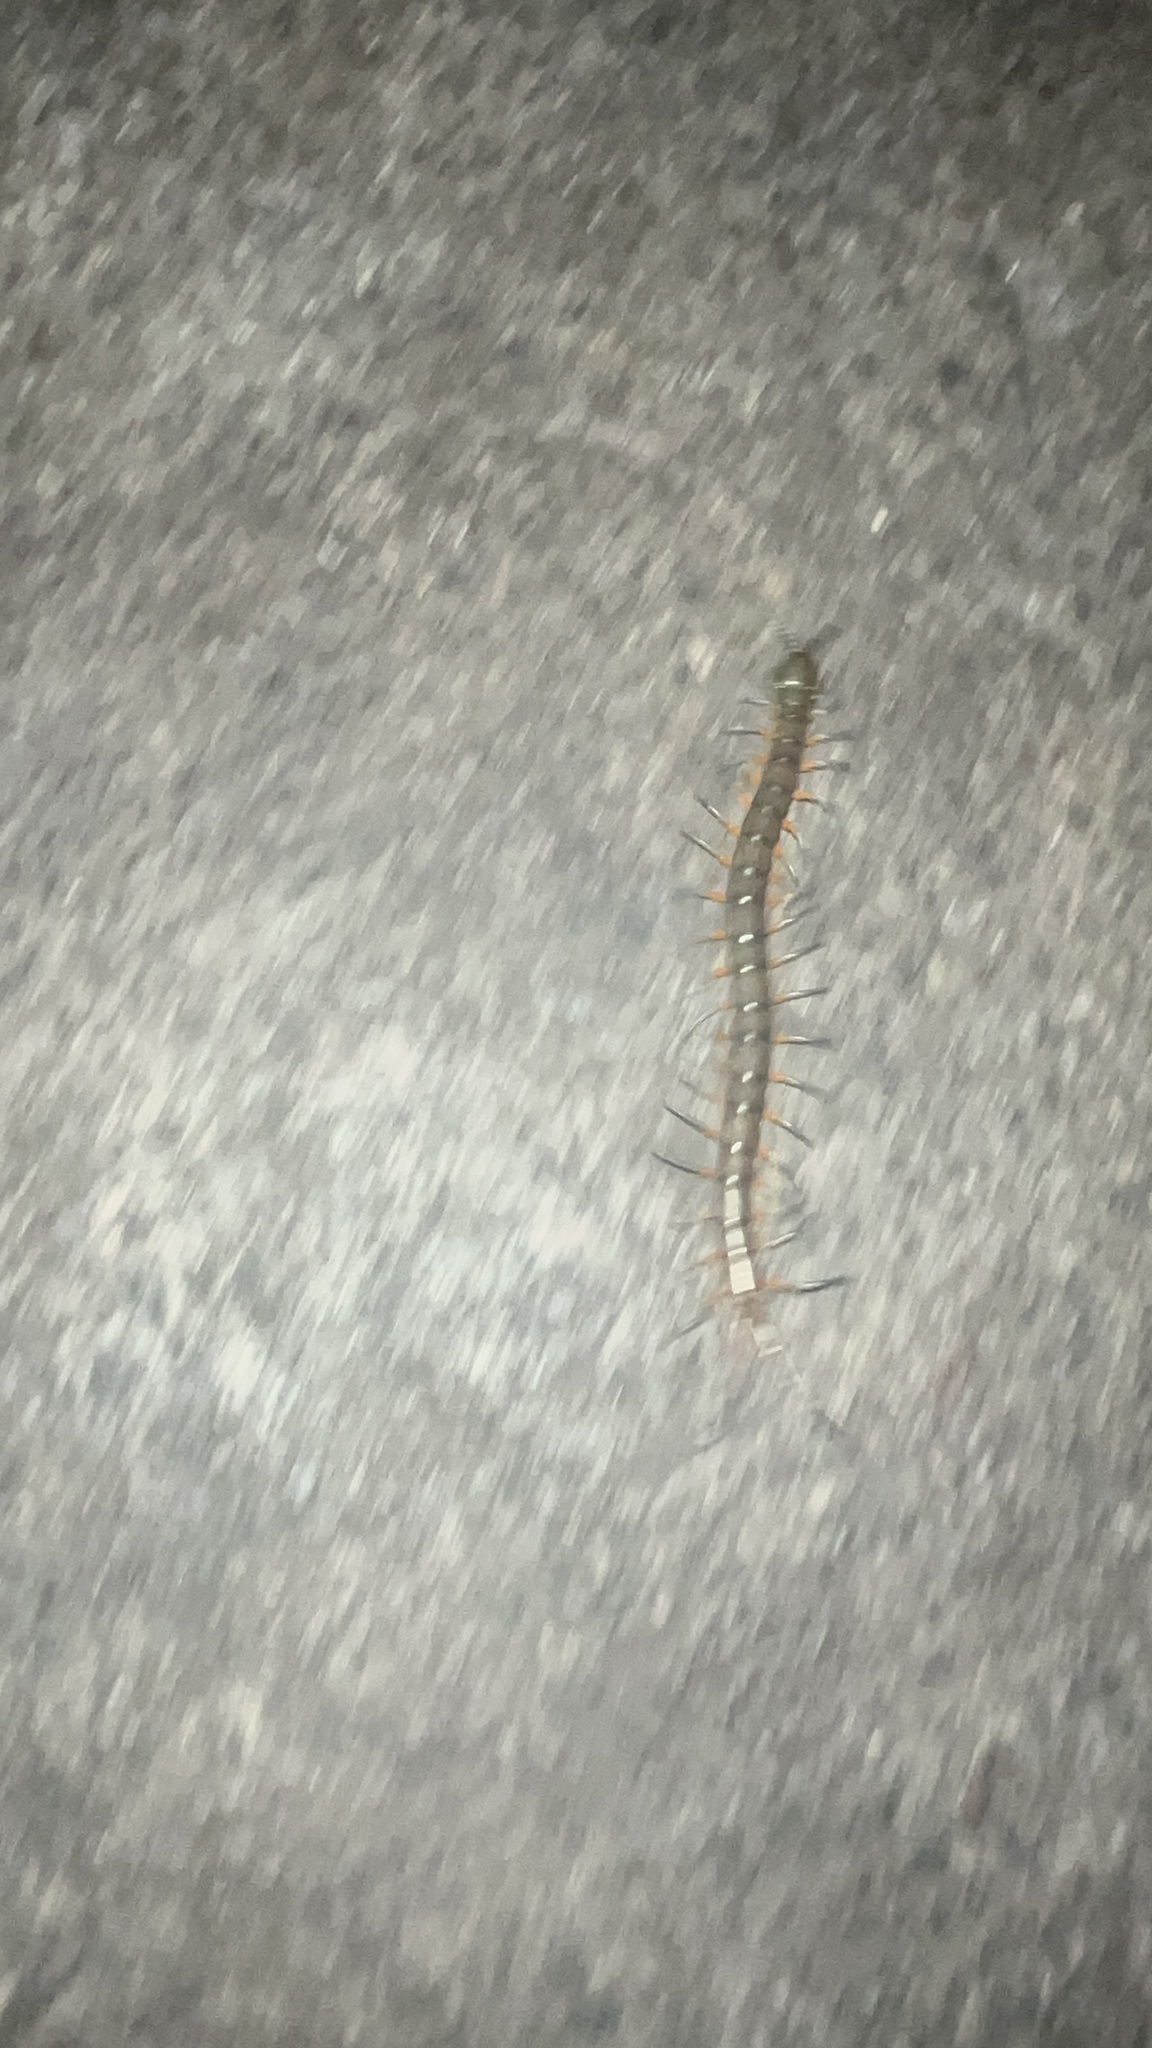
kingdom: Animalia
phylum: Arthropoda
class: Chilopoda
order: Scolopendromorpha
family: Scolopendridae
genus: Scolopendra
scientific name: Scolopendra subspinipes
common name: Centipede
